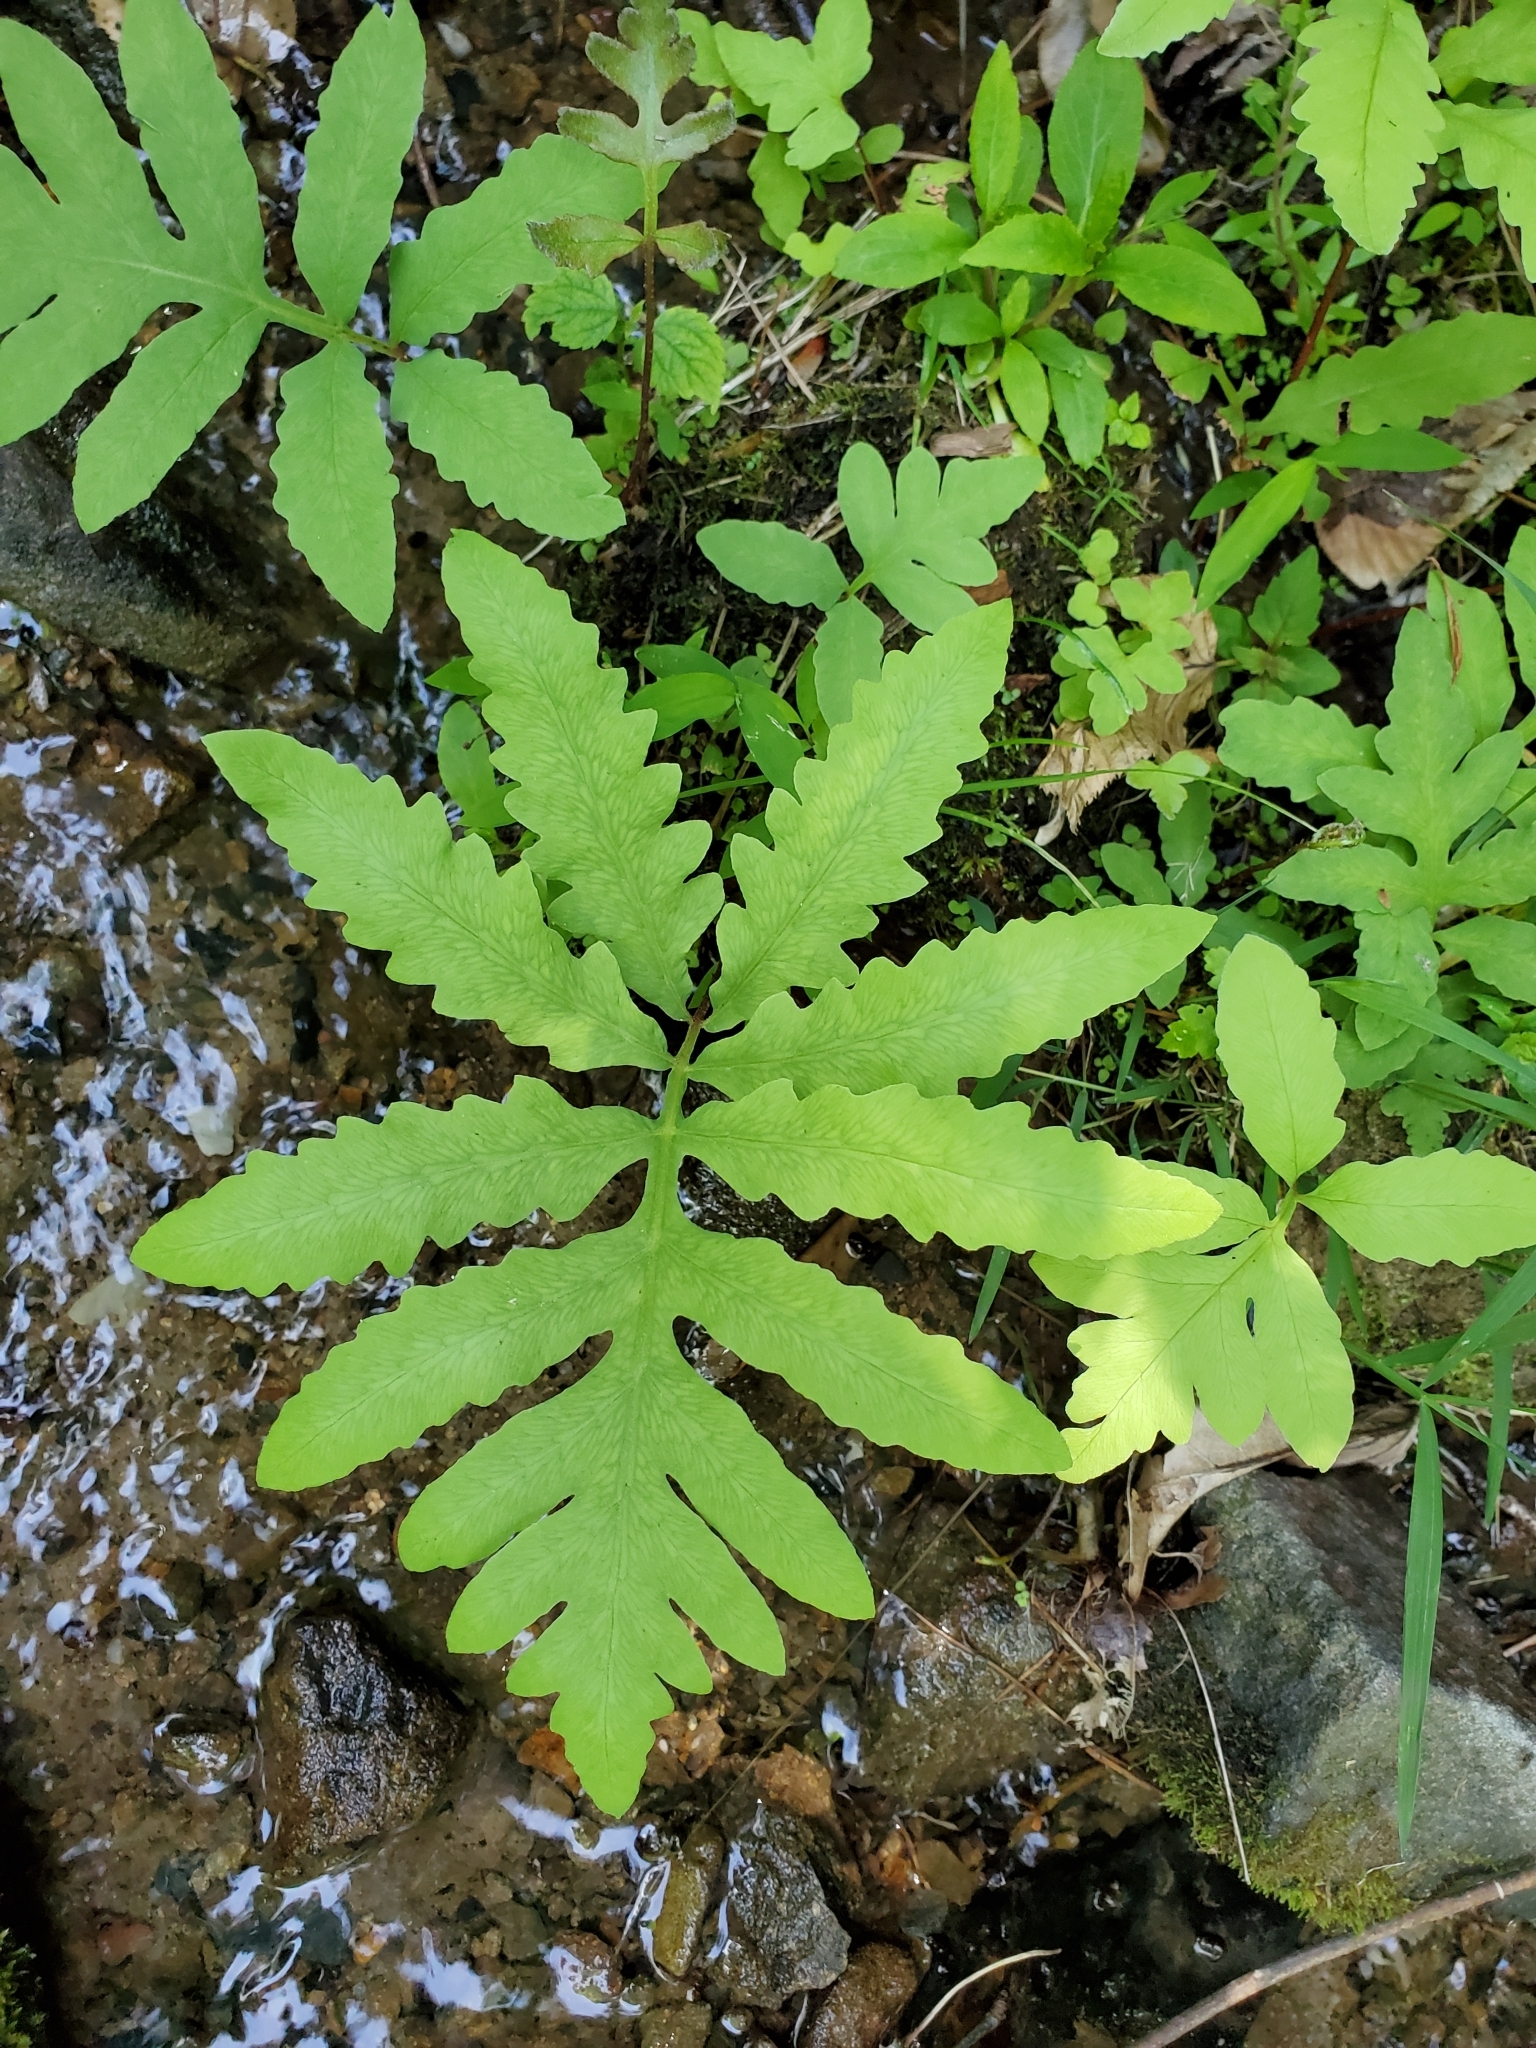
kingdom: Plantae
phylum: Tracheophyta
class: Polypodiopsida
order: Polypodiales
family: Onocleaceae
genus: Onoclea
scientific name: Onoclea sensibilis
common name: Sensitive fern
